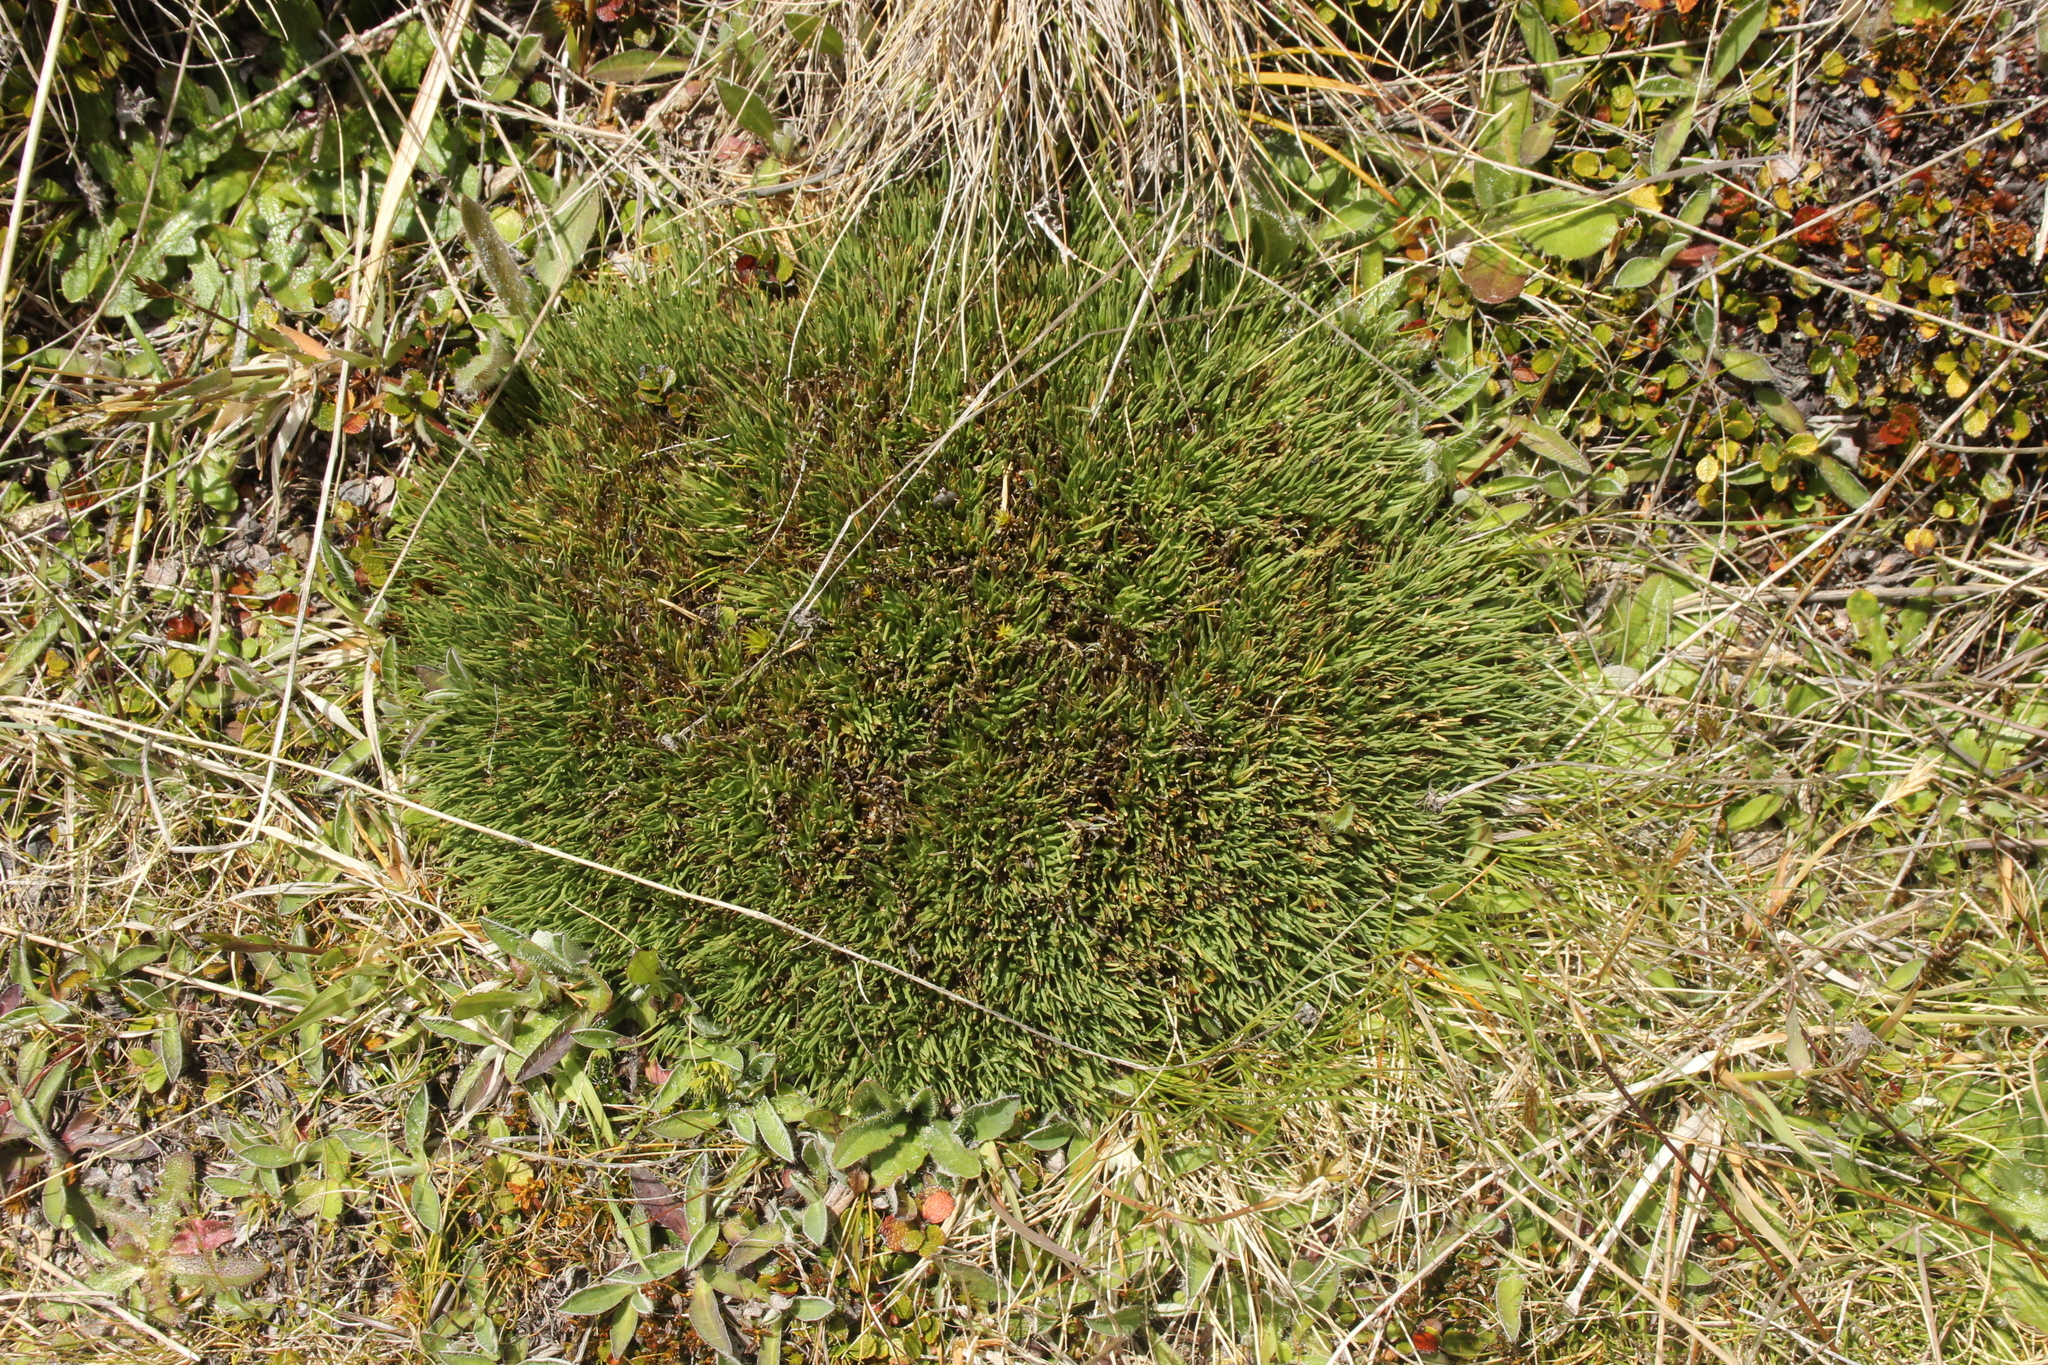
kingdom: Plantae
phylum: Tracheophyta
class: Liliopsida
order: Poales
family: Cyperaceae
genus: Oreobolus
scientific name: Oreobolus pectinatus
